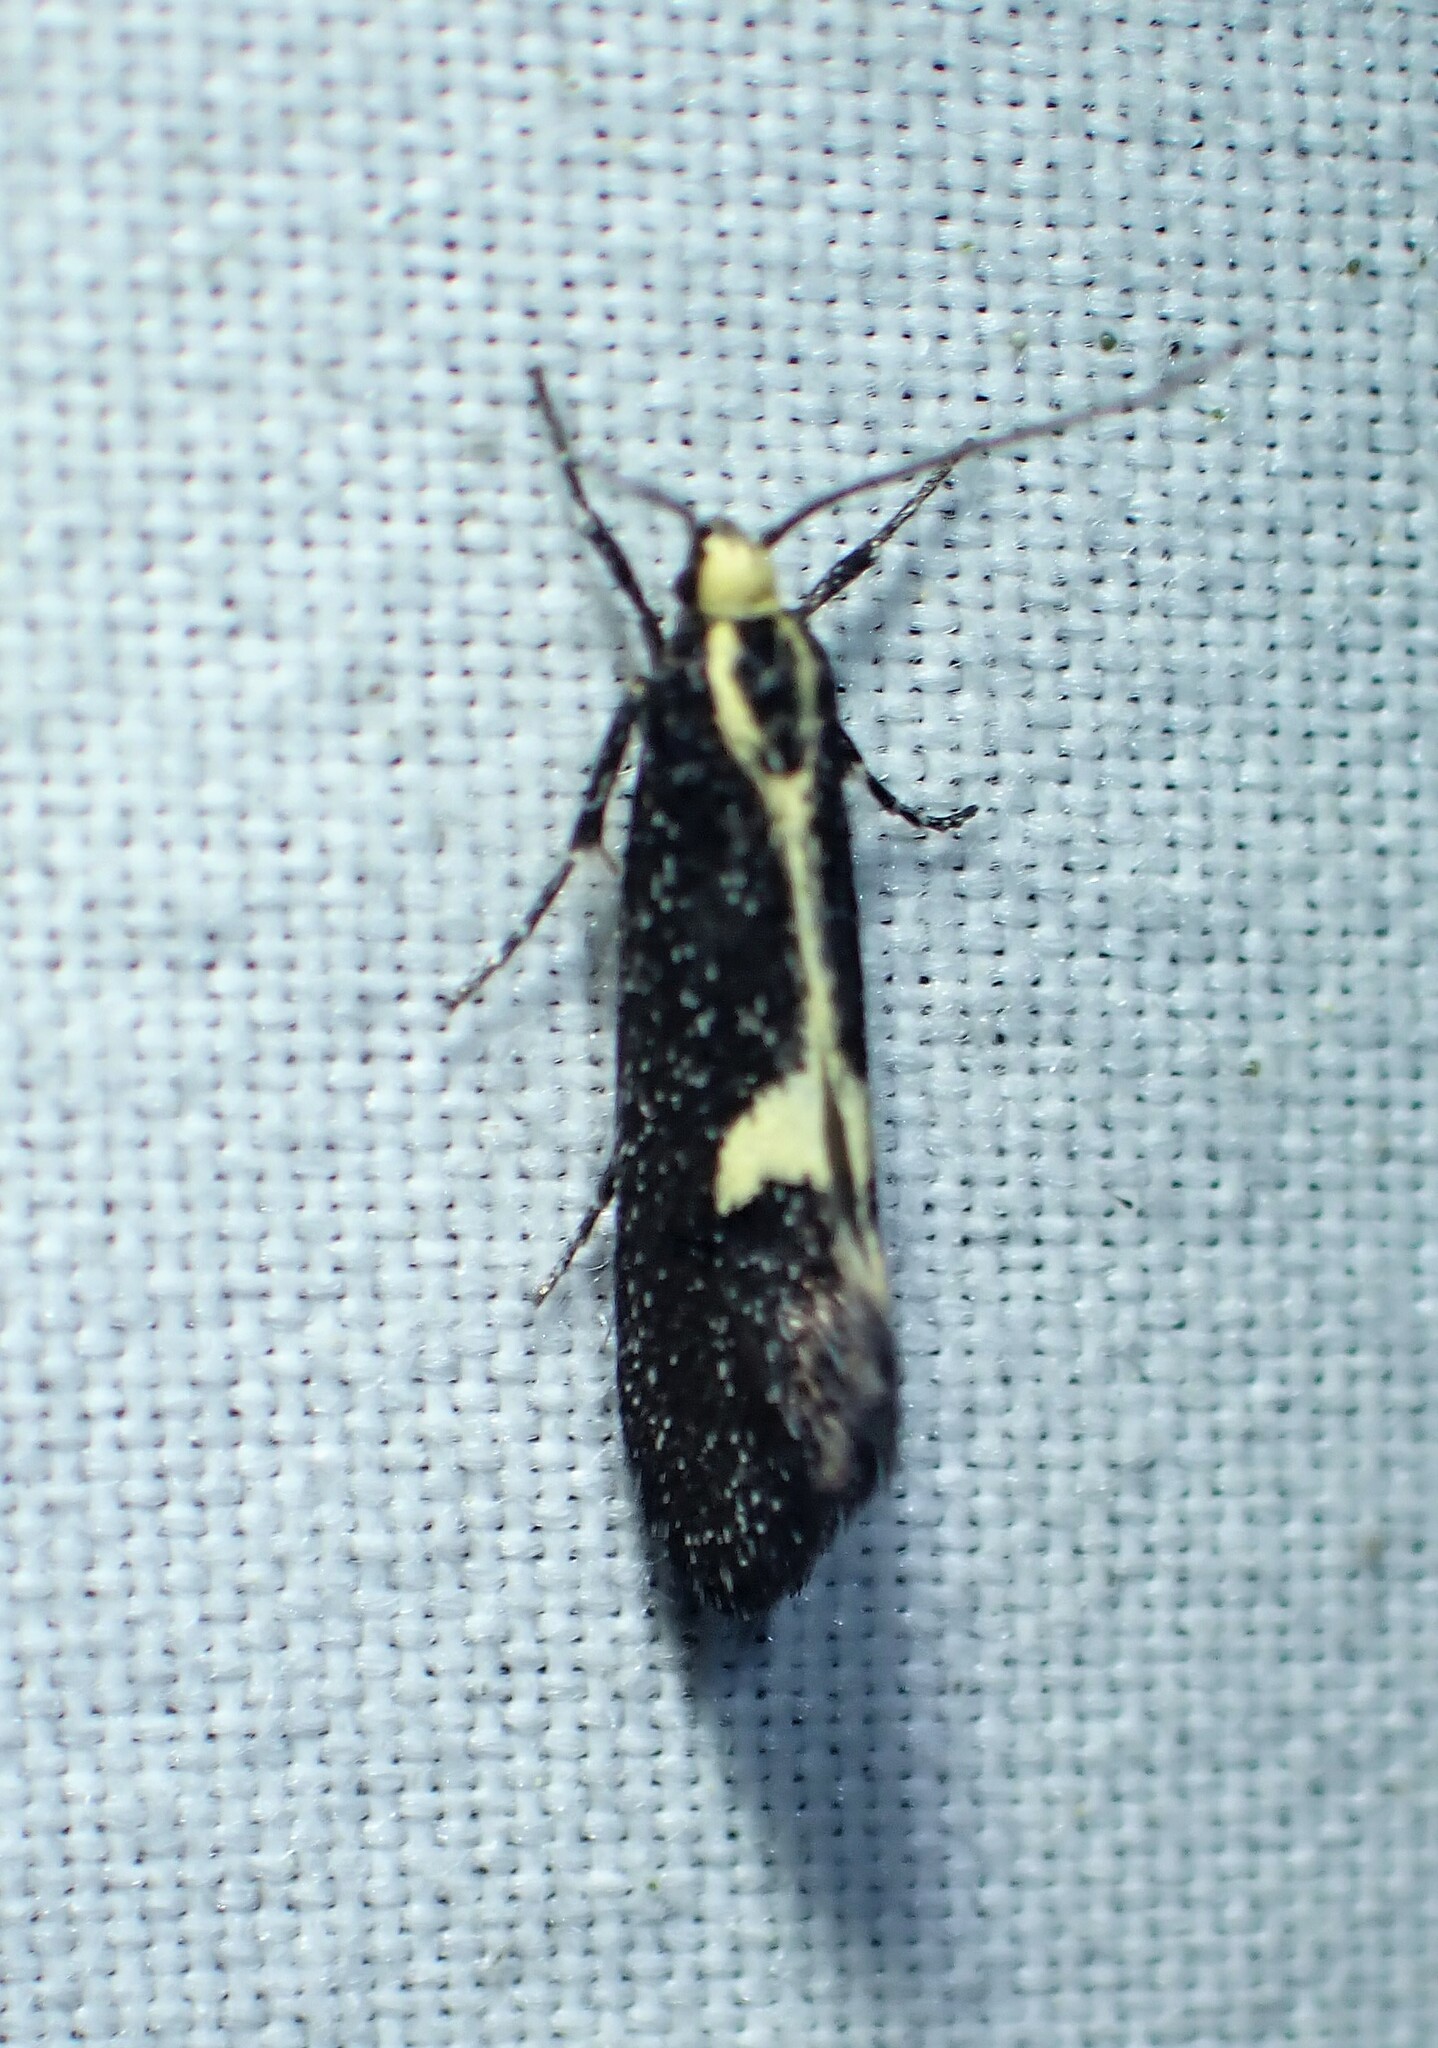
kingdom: Animalia
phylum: Arthropoda
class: Insecta
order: Lepidoptera
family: Oecophoridae
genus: Polix
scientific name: Polix coloradella
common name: Skunk moth
